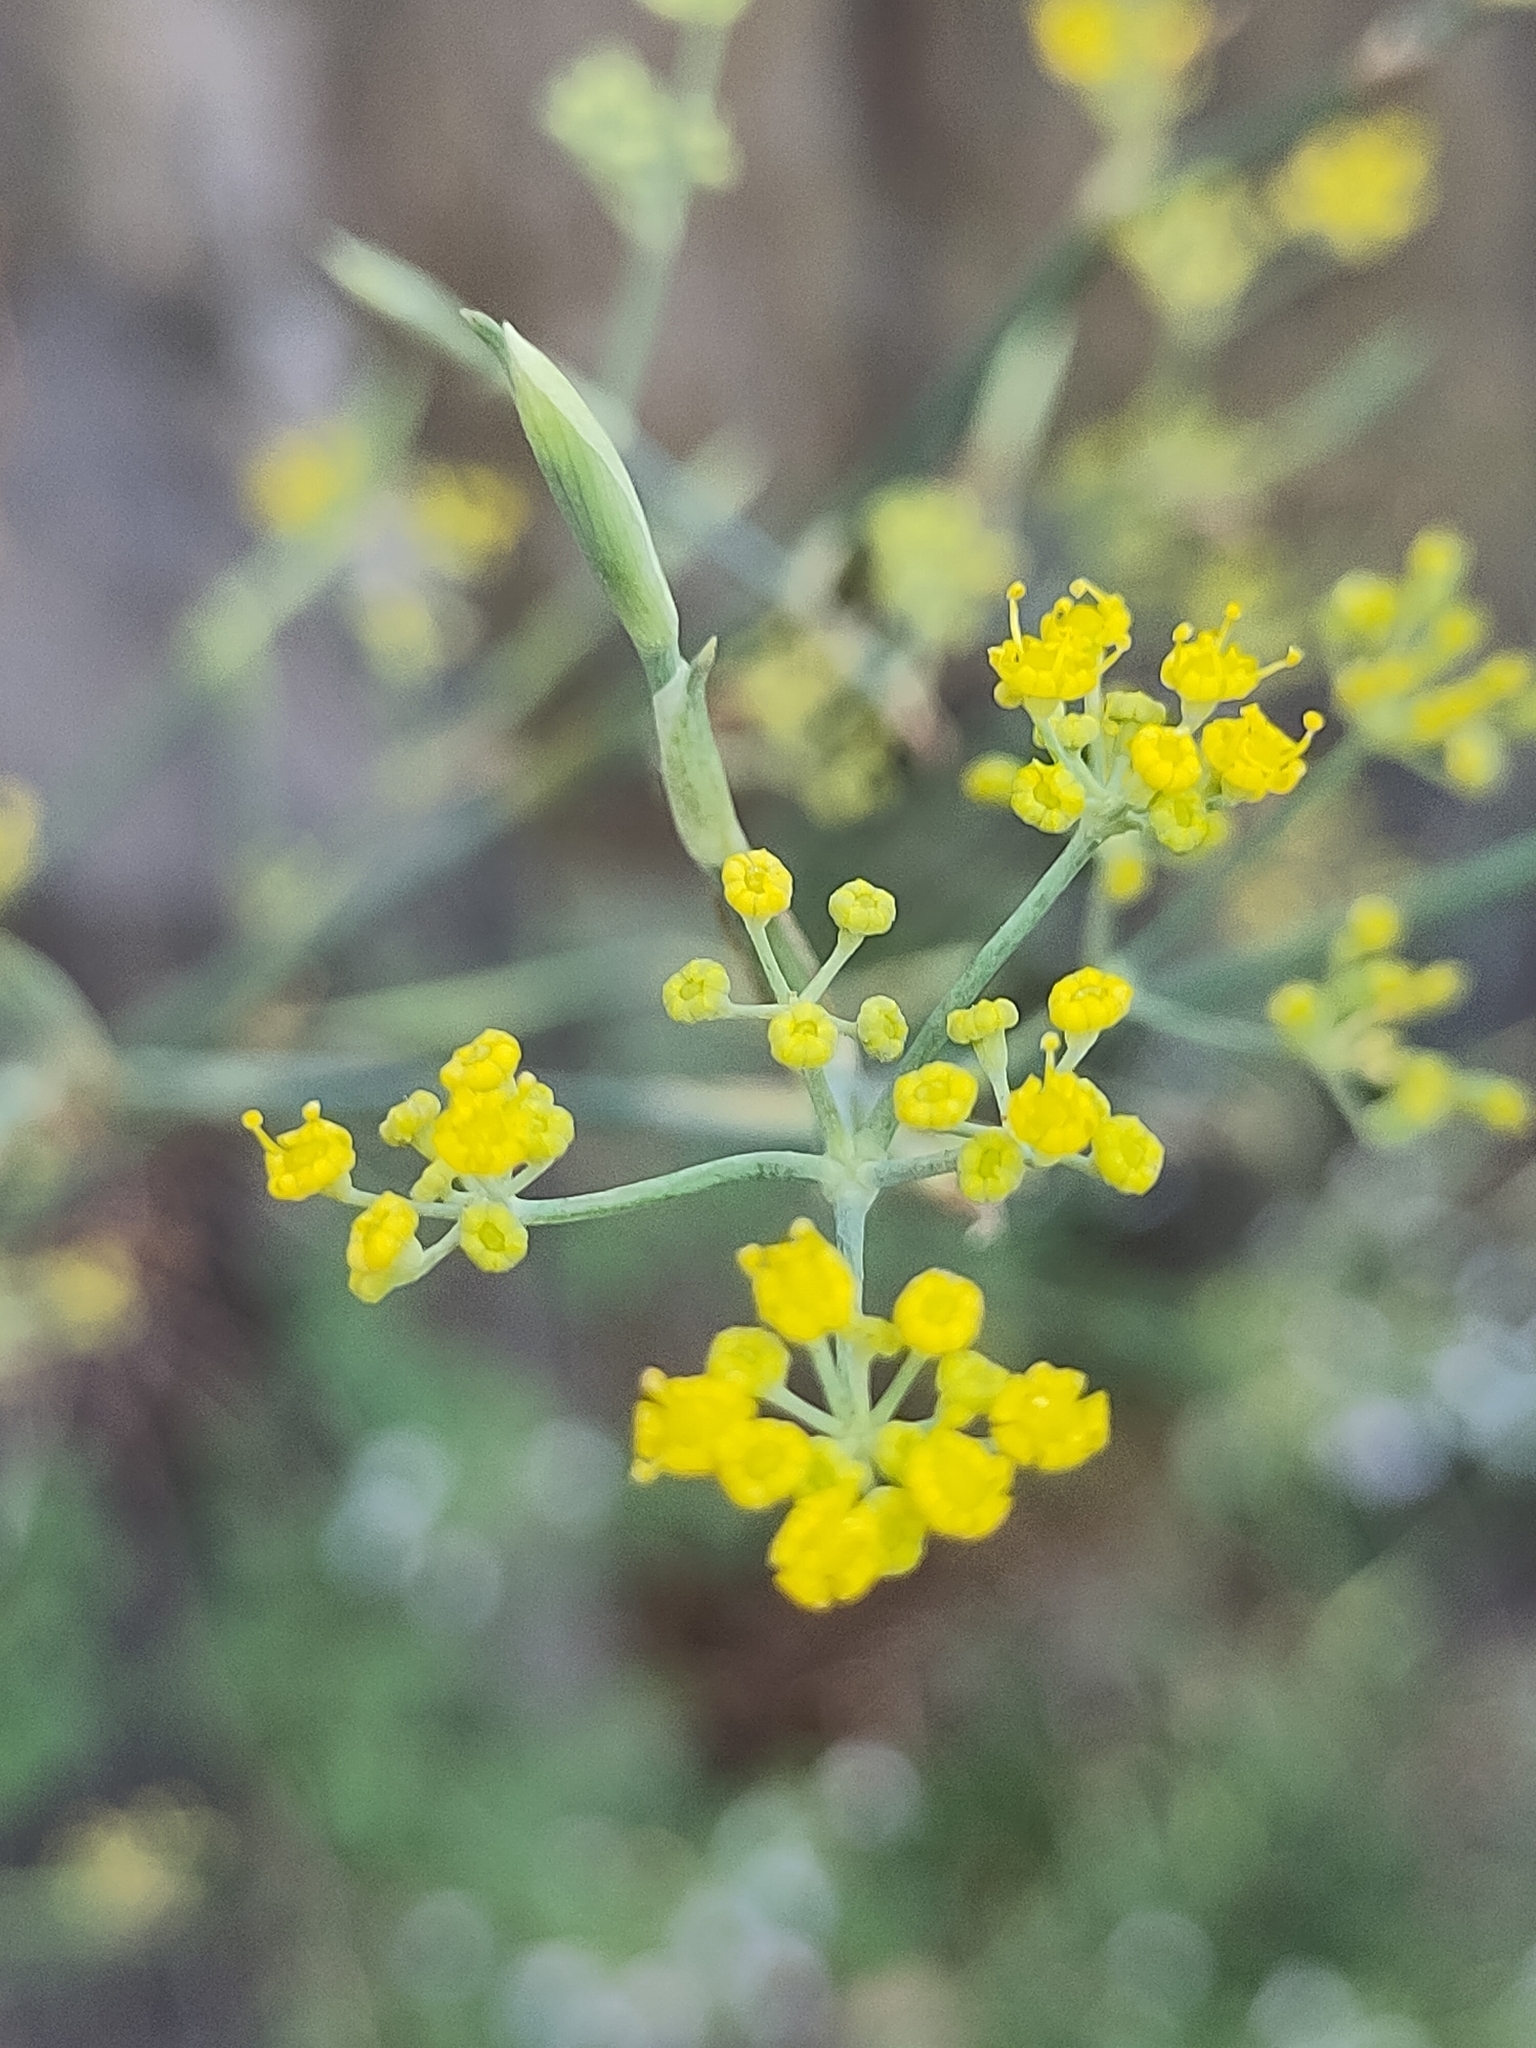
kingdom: Plantae
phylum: Tracheophyta
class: Magnoliopsida
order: Apiales
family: Apiaceae
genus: Foeniculum
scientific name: Foeniculum vulgare
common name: Fennel
